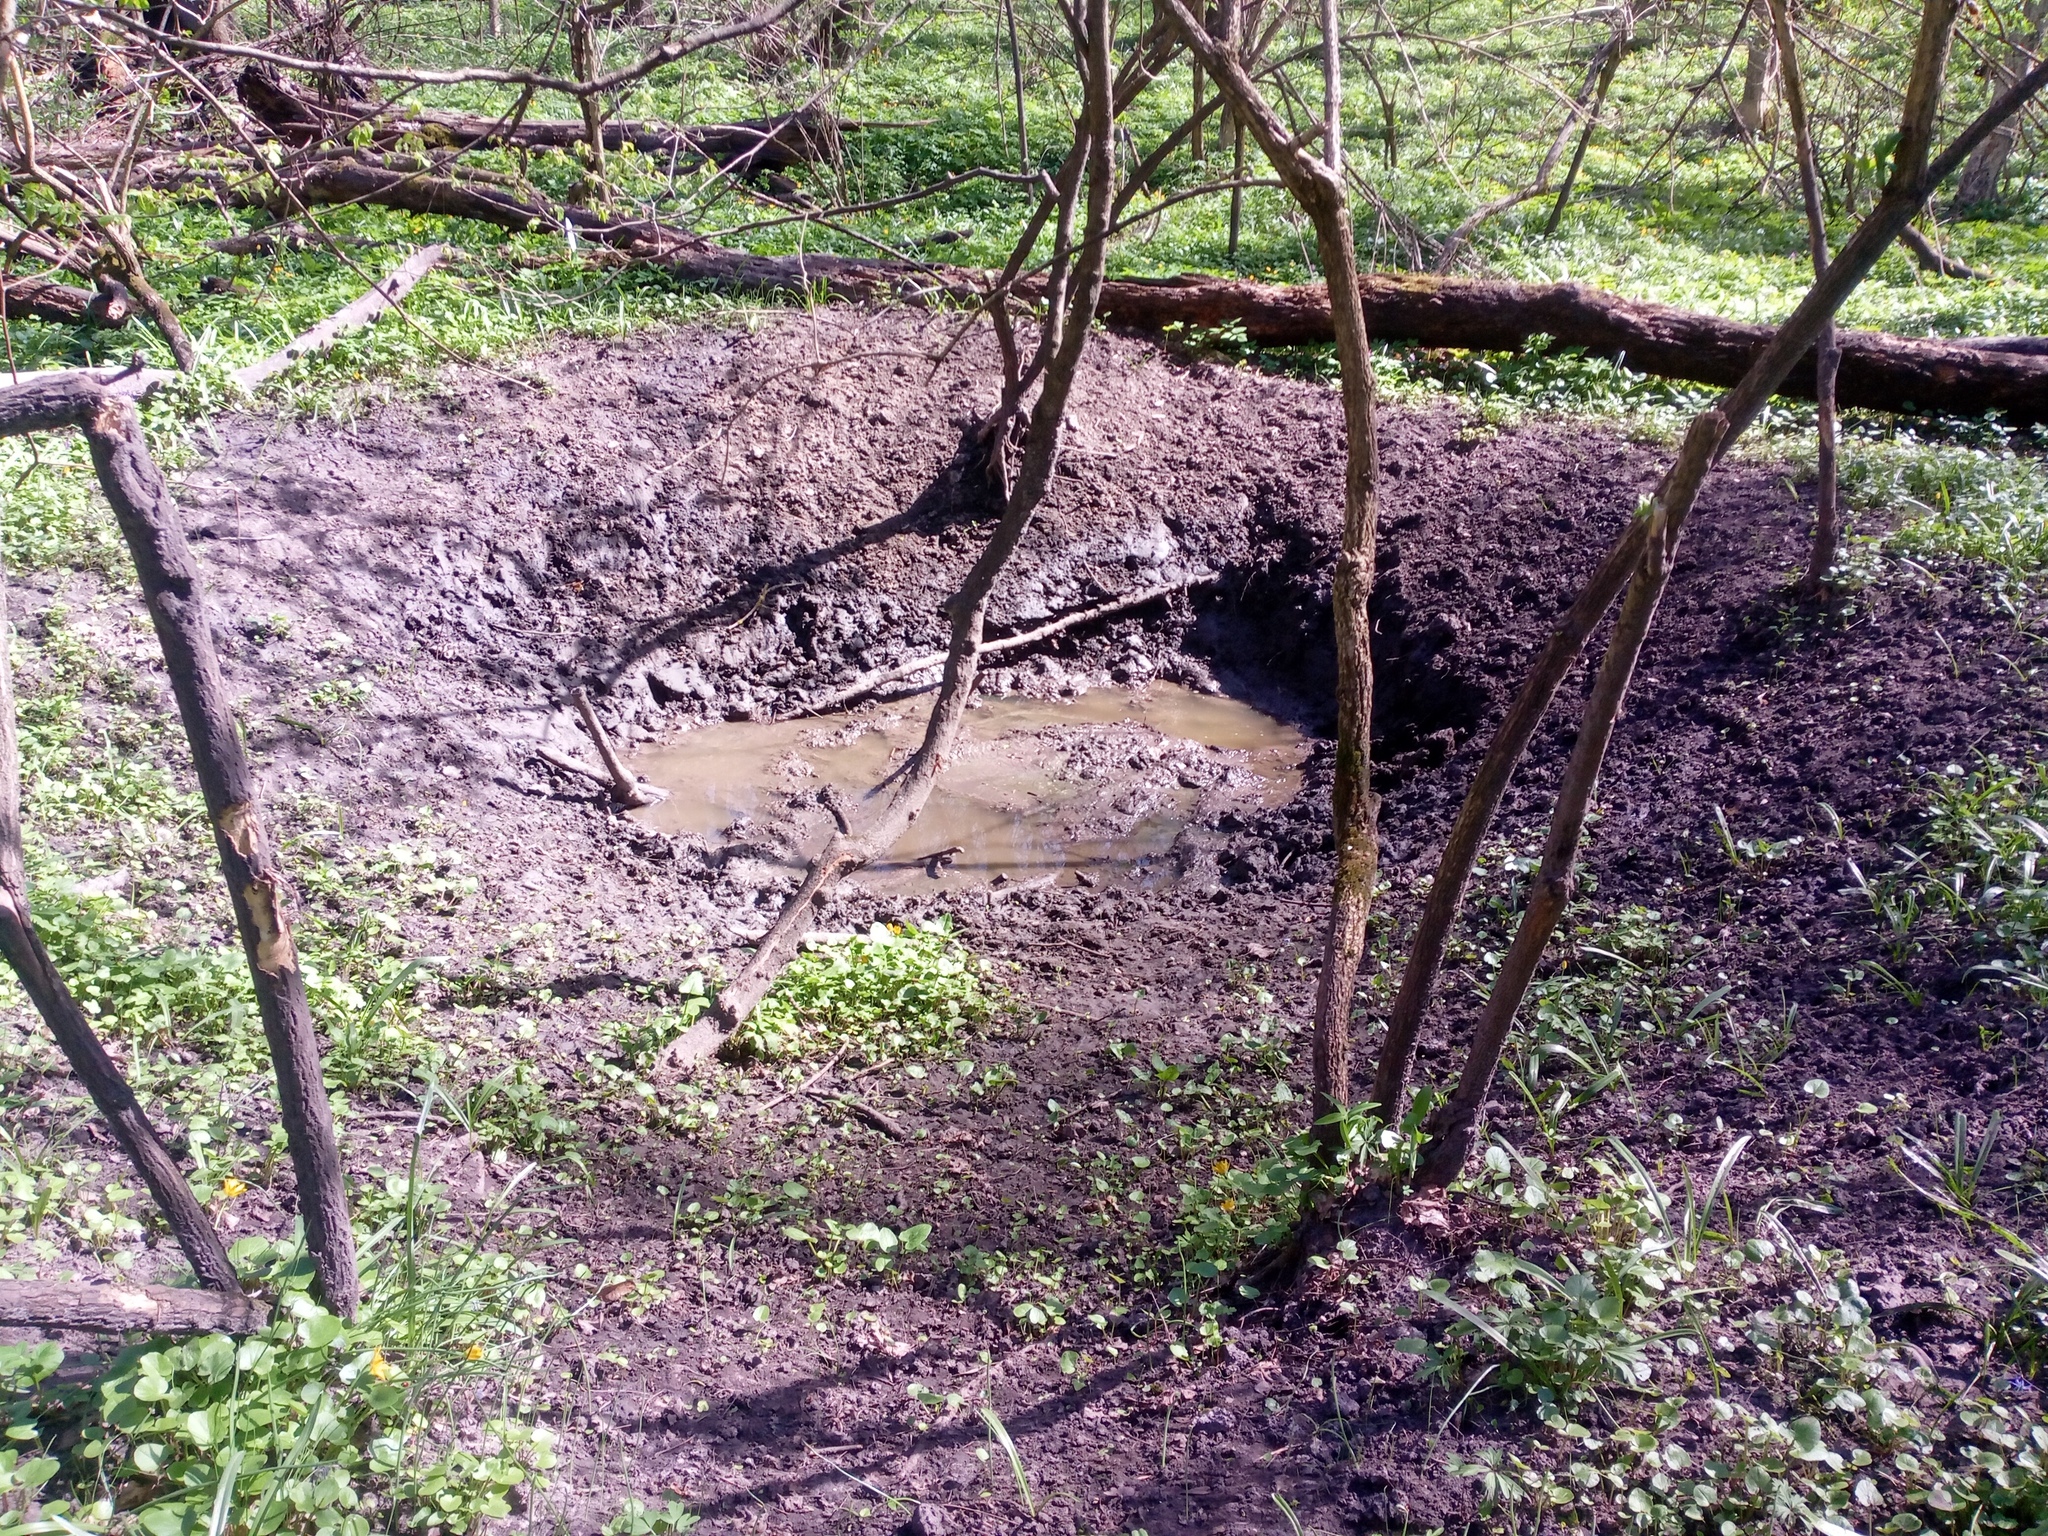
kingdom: Animalia
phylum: Chordata
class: Mammalia
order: Artiodactyla
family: Suidae
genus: Sus
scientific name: Sus scrofa
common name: Wild boar
